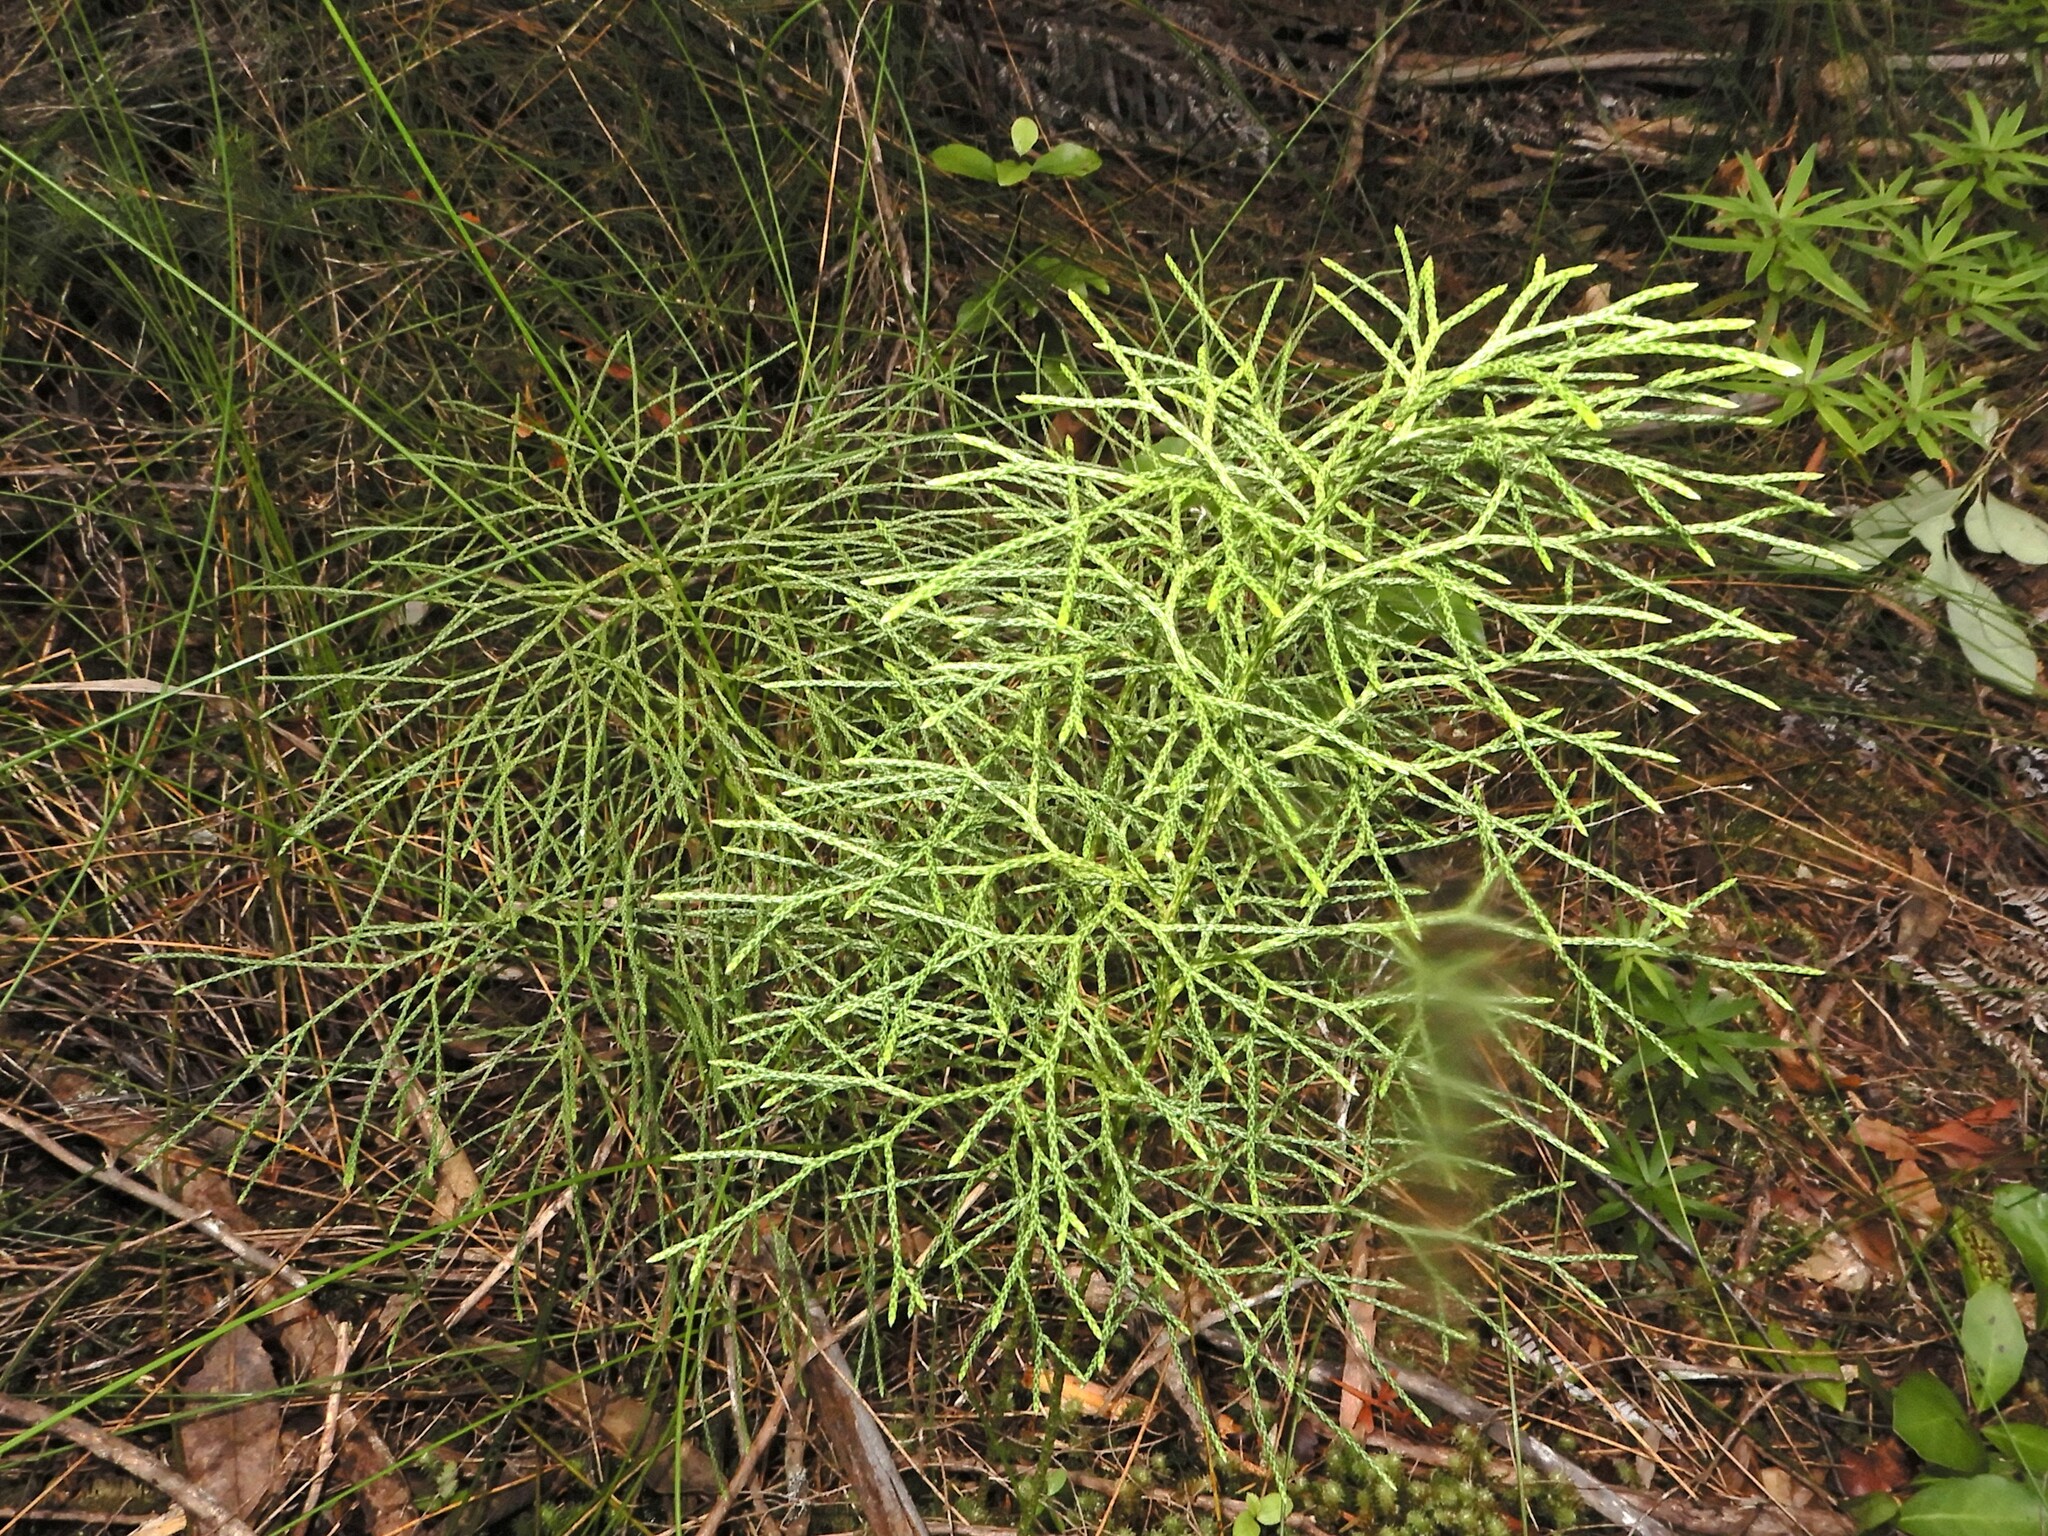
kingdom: Plantae
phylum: Tracheophyta
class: Lycopodiopsida
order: Lycopodiales
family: Lycopodiaceae
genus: Pseudolycopodium
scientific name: Pseudolycopodium densum
